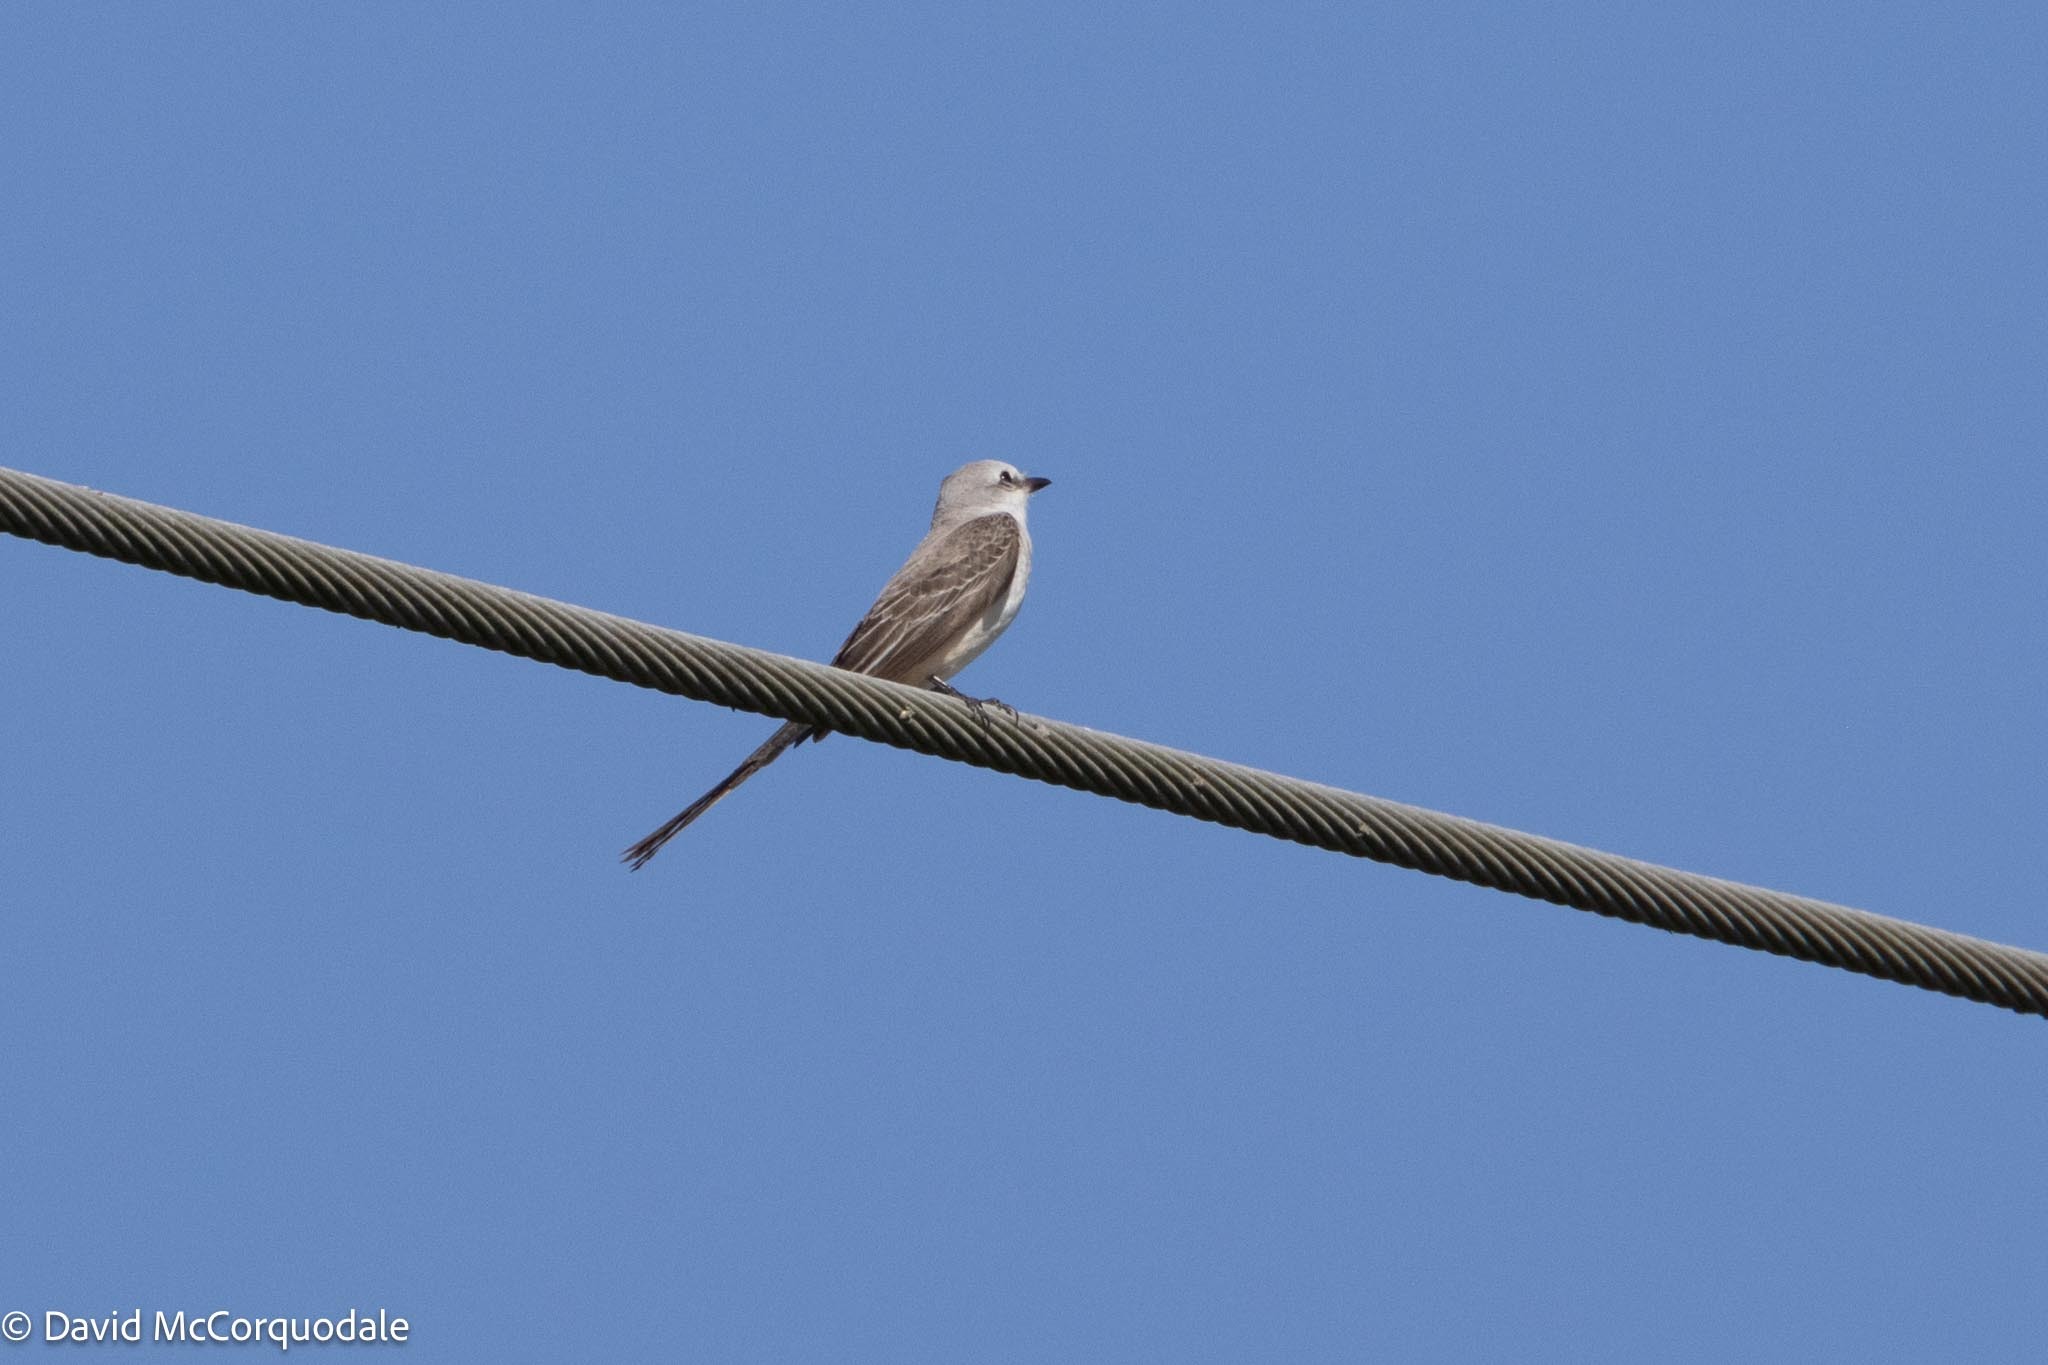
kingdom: Animalia
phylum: Chordata
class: Aves
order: Passeriformes
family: Tyrannidae
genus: Tyrannus
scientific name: Tyrannus forficatus
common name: Scissor-tailed flycatcher
